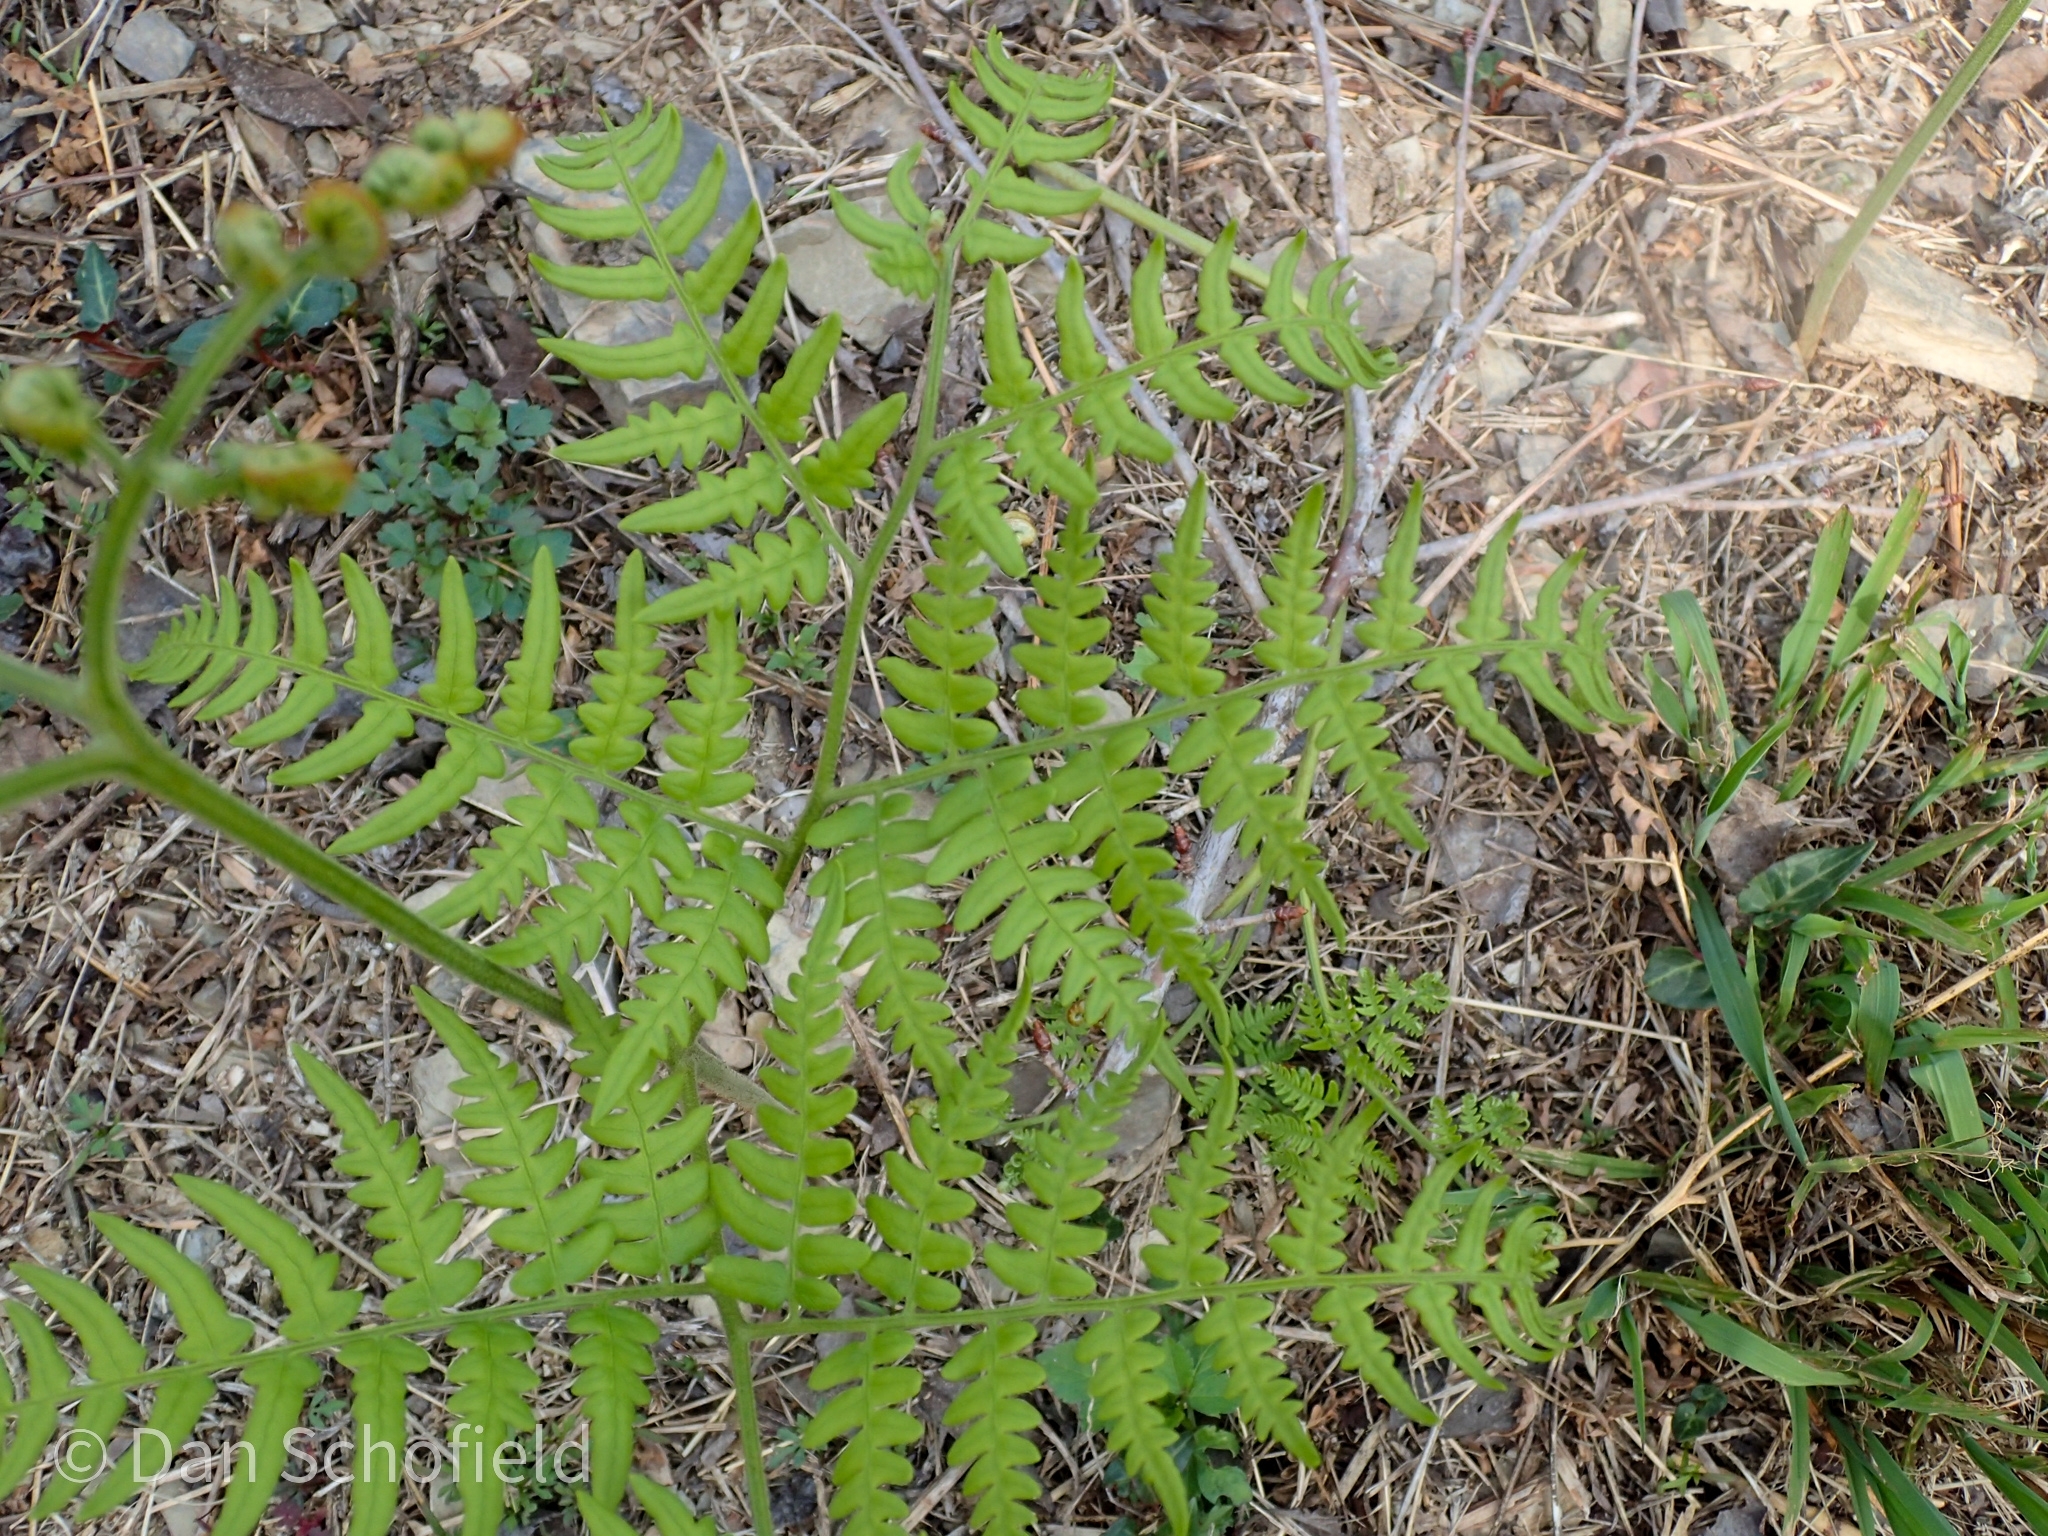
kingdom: Plantae
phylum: Tracheophyta
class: Polypodiopsida
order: Polypodiales
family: Dennstaedtiaceae
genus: Pteridium
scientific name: Pteridium aquilinum
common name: Bracken
